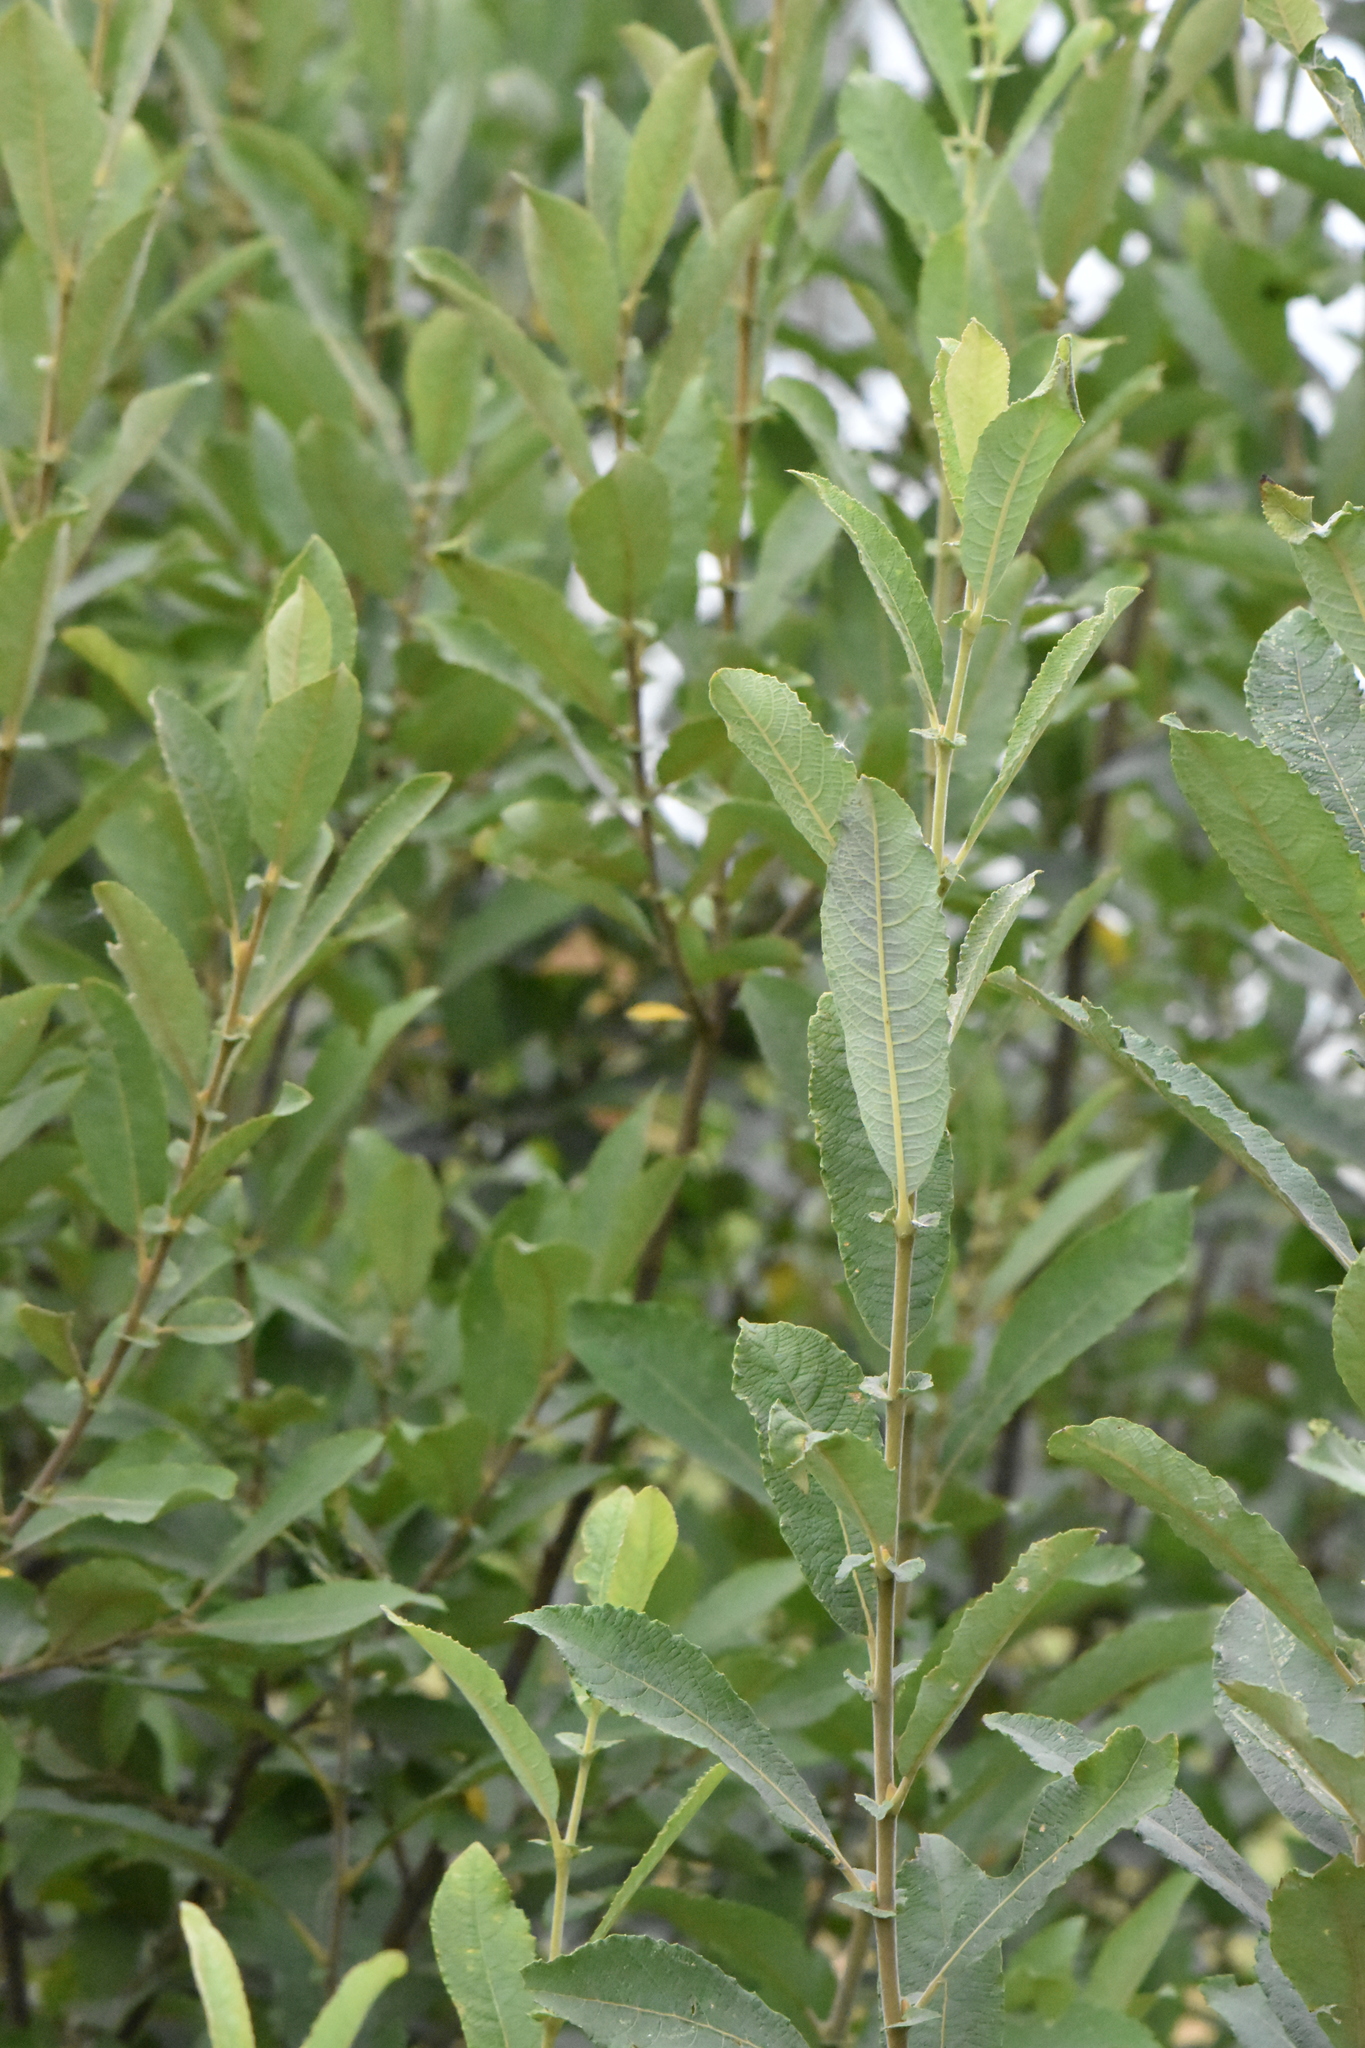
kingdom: Plantae
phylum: Tracheophyta
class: Magnoliopsida
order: Malpighiales
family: Salicaceae
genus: Salix
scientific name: Salix cinerea
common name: Common sallow
